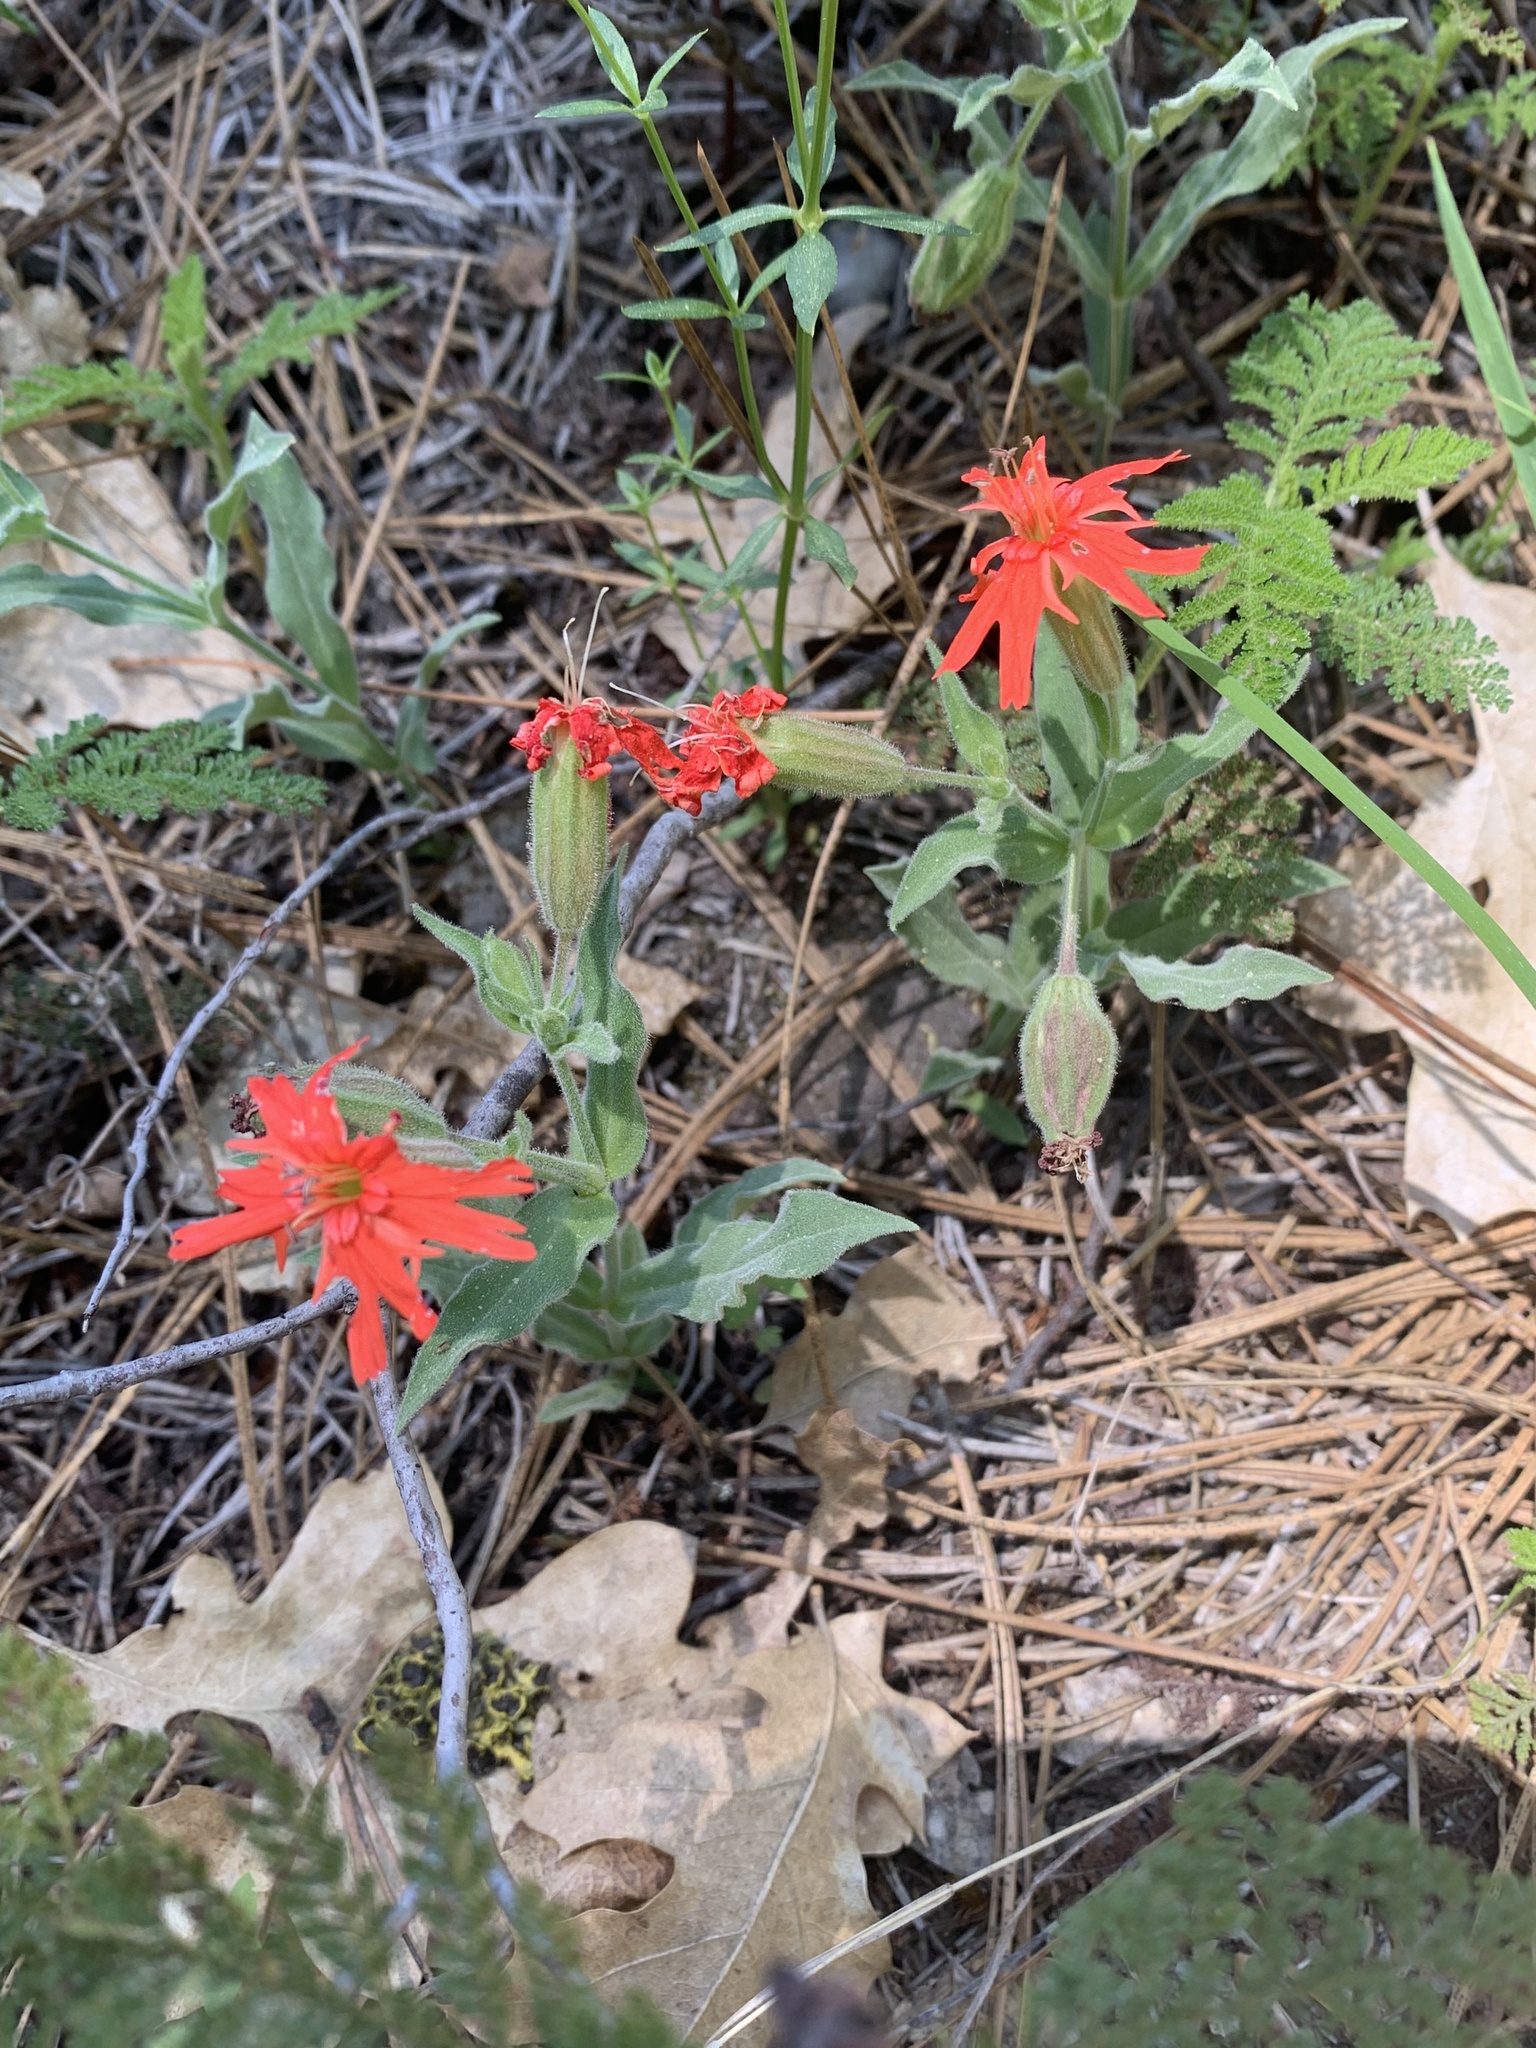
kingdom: Plantae
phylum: Tracheophyta
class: Magnoliopsida
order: Caryophyllales
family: Caryophyllaceae
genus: Silene
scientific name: Silene laciniata
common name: Indian-pink
